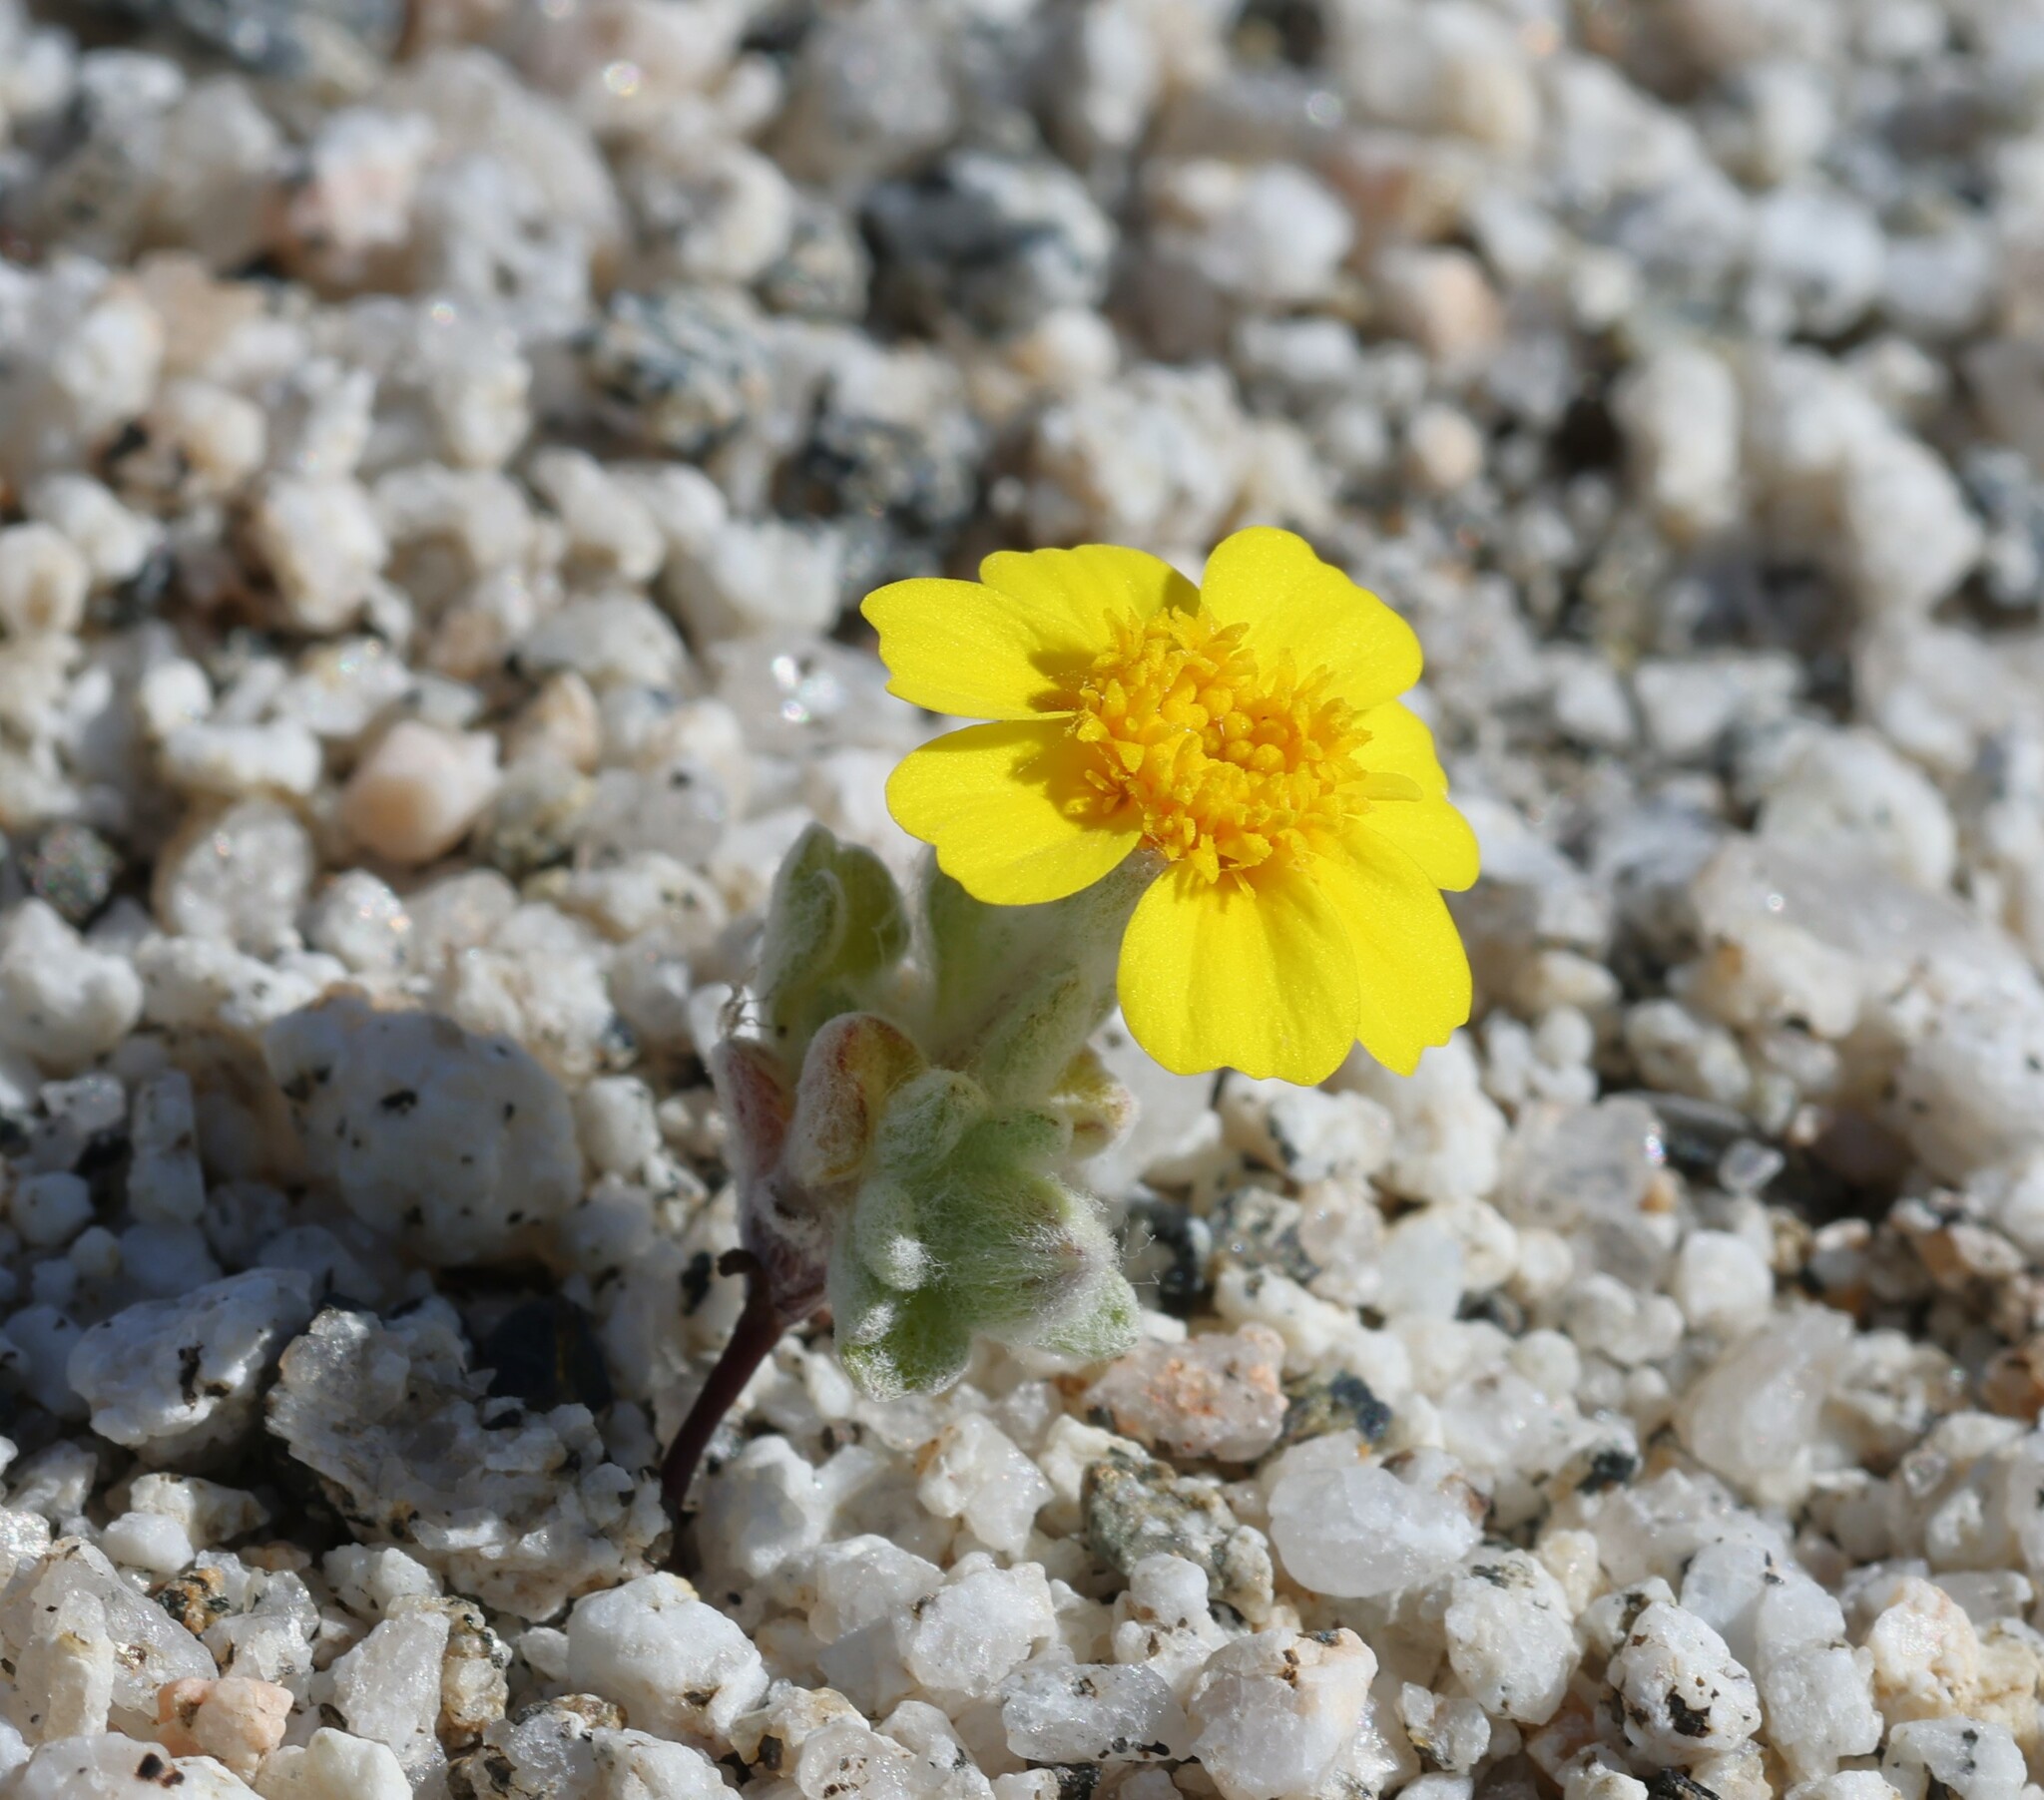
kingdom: Plantae
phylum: Tracheophyta
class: Magnoliopsida
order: Asterales
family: Asteraceae
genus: Eriophyllum
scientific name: Eriophyllum wallacei
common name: Wallace's woolly daisy
